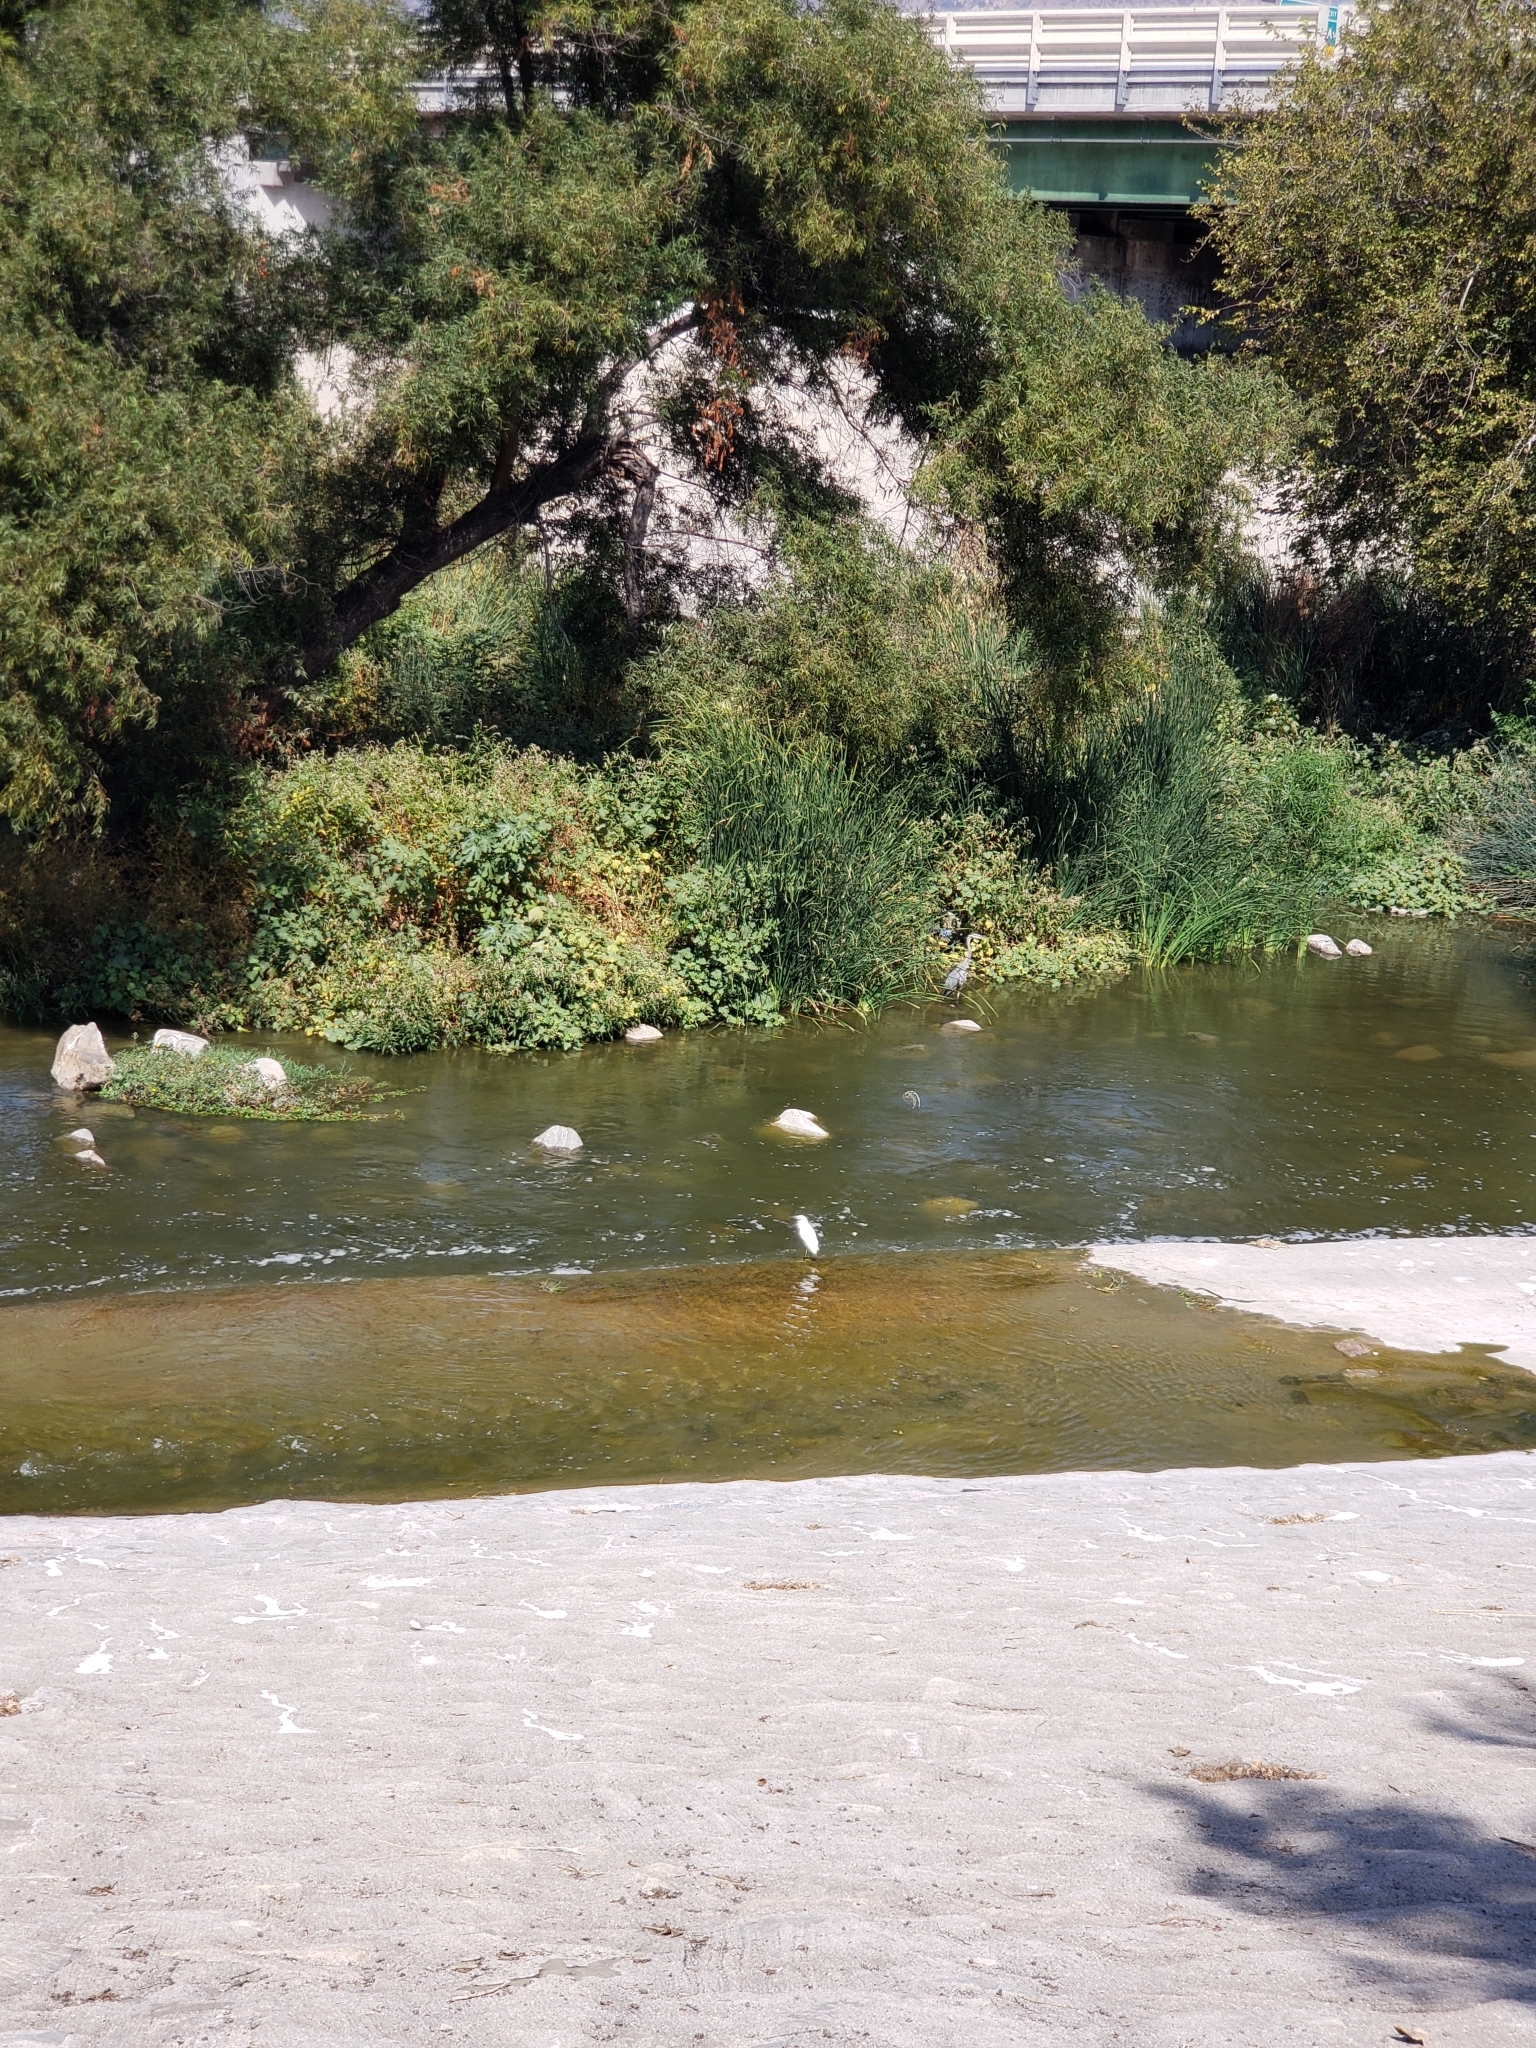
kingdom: Animalia
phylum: Chordata
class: Aves
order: Pelecaniformes
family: Ardeidae
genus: Egretta
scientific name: Egretta thula
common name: Snowy egret
